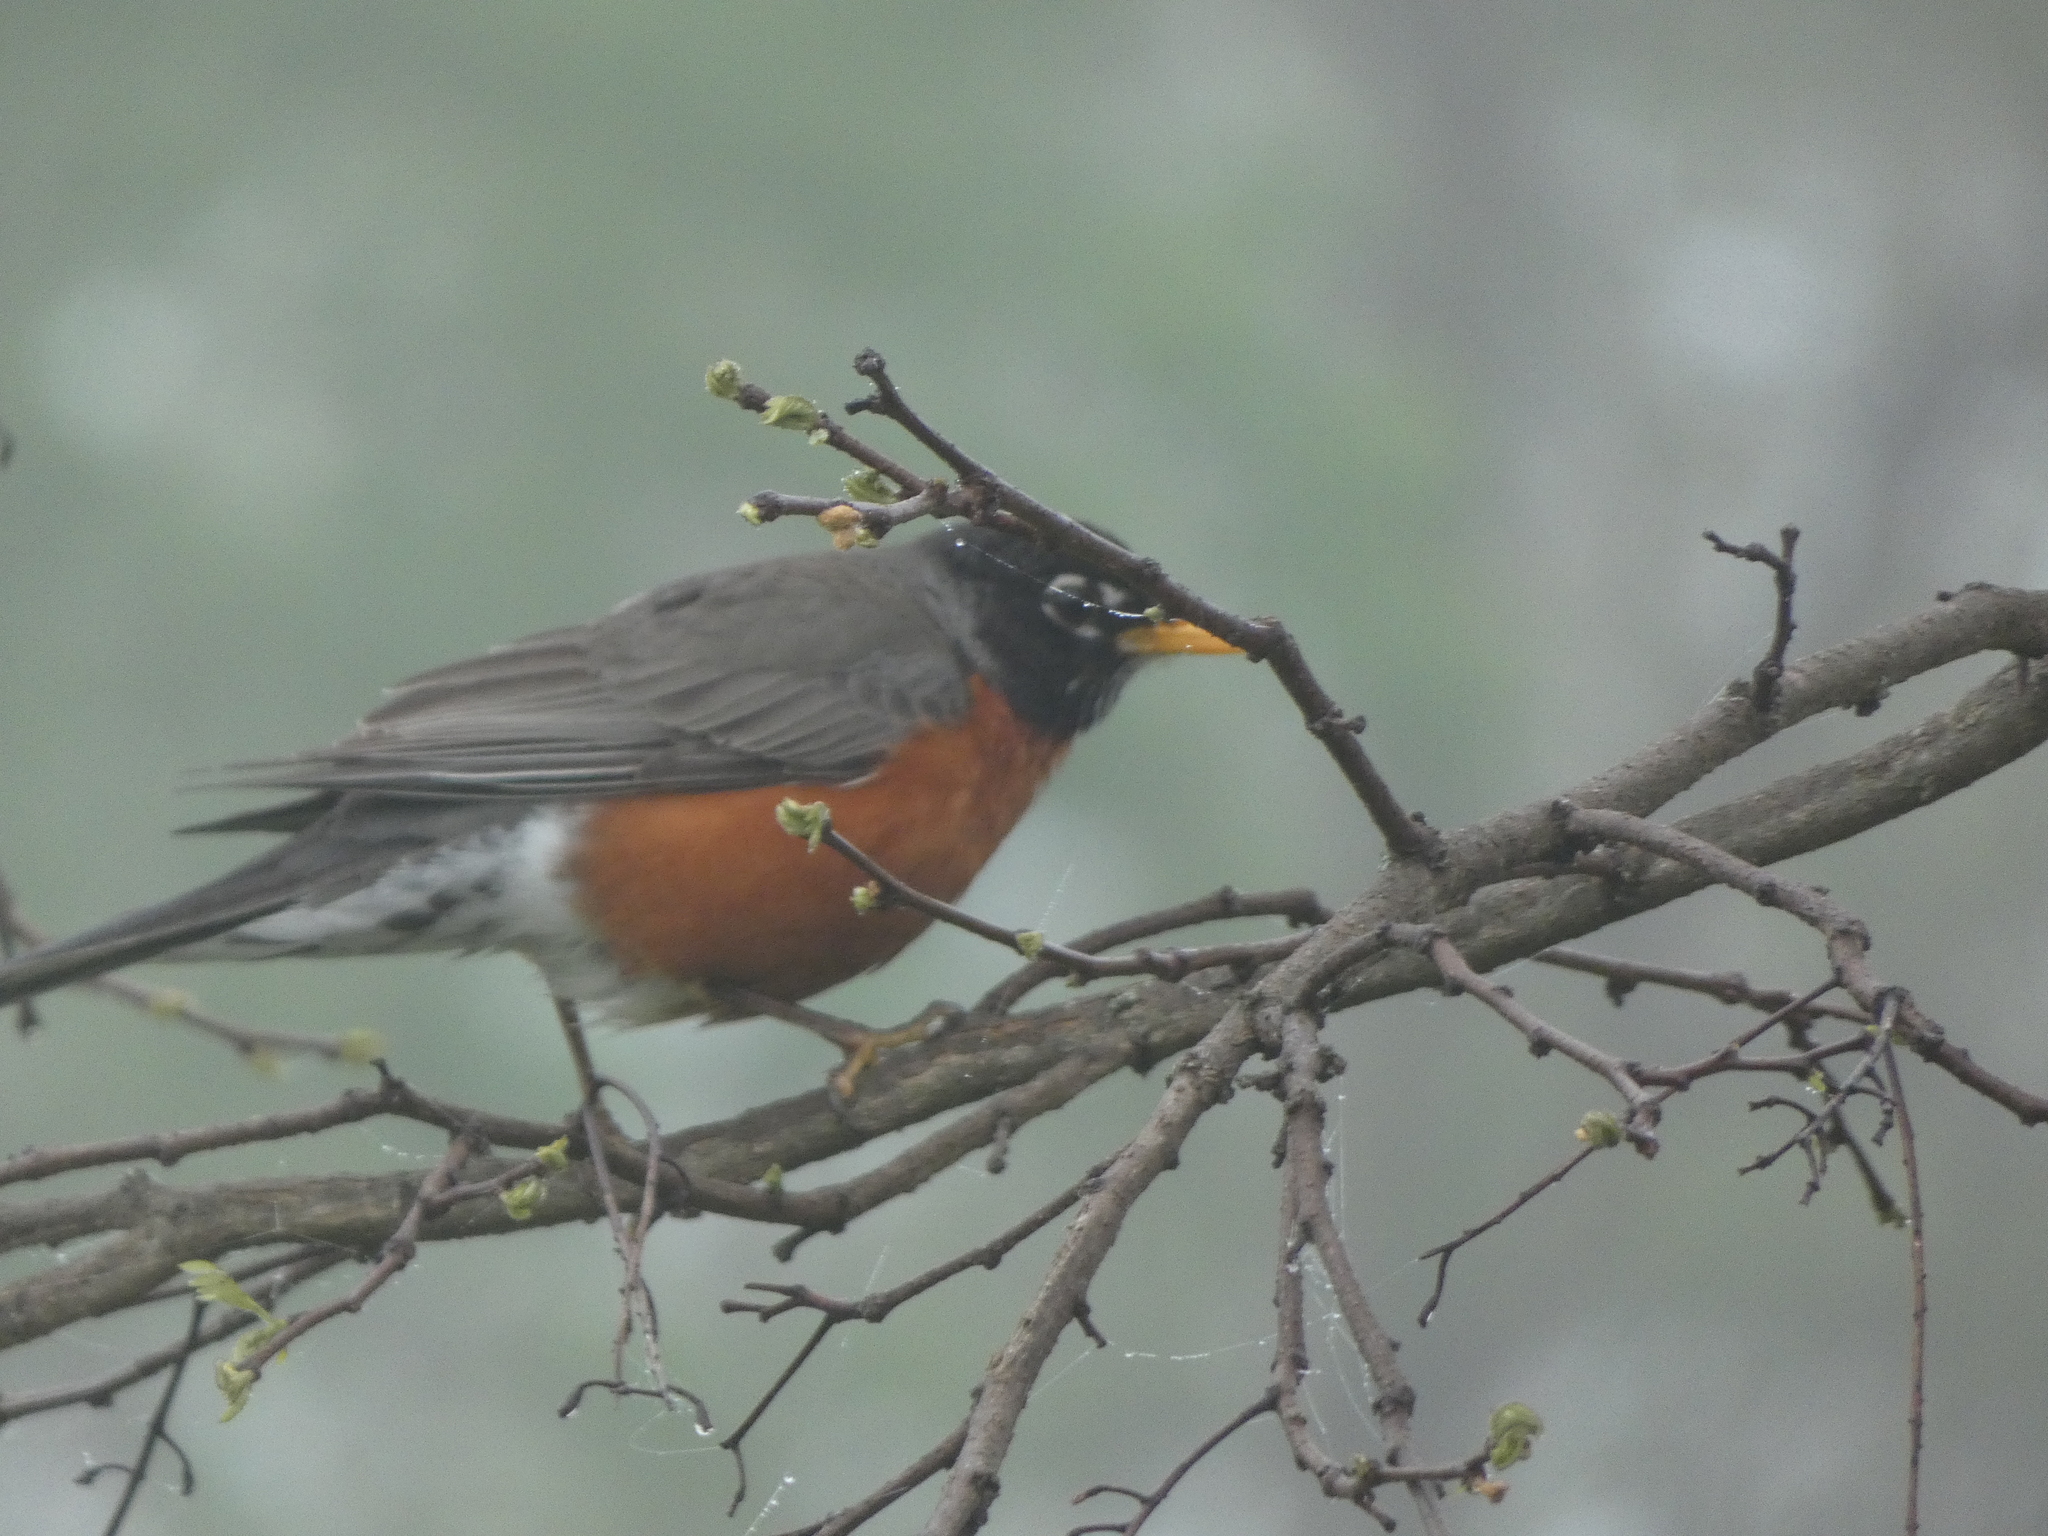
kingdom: Animalia
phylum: Chordata
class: Aves
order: Passeriformes
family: Turdidae
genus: Turdus
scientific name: Turdus migratorius
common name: American robin
